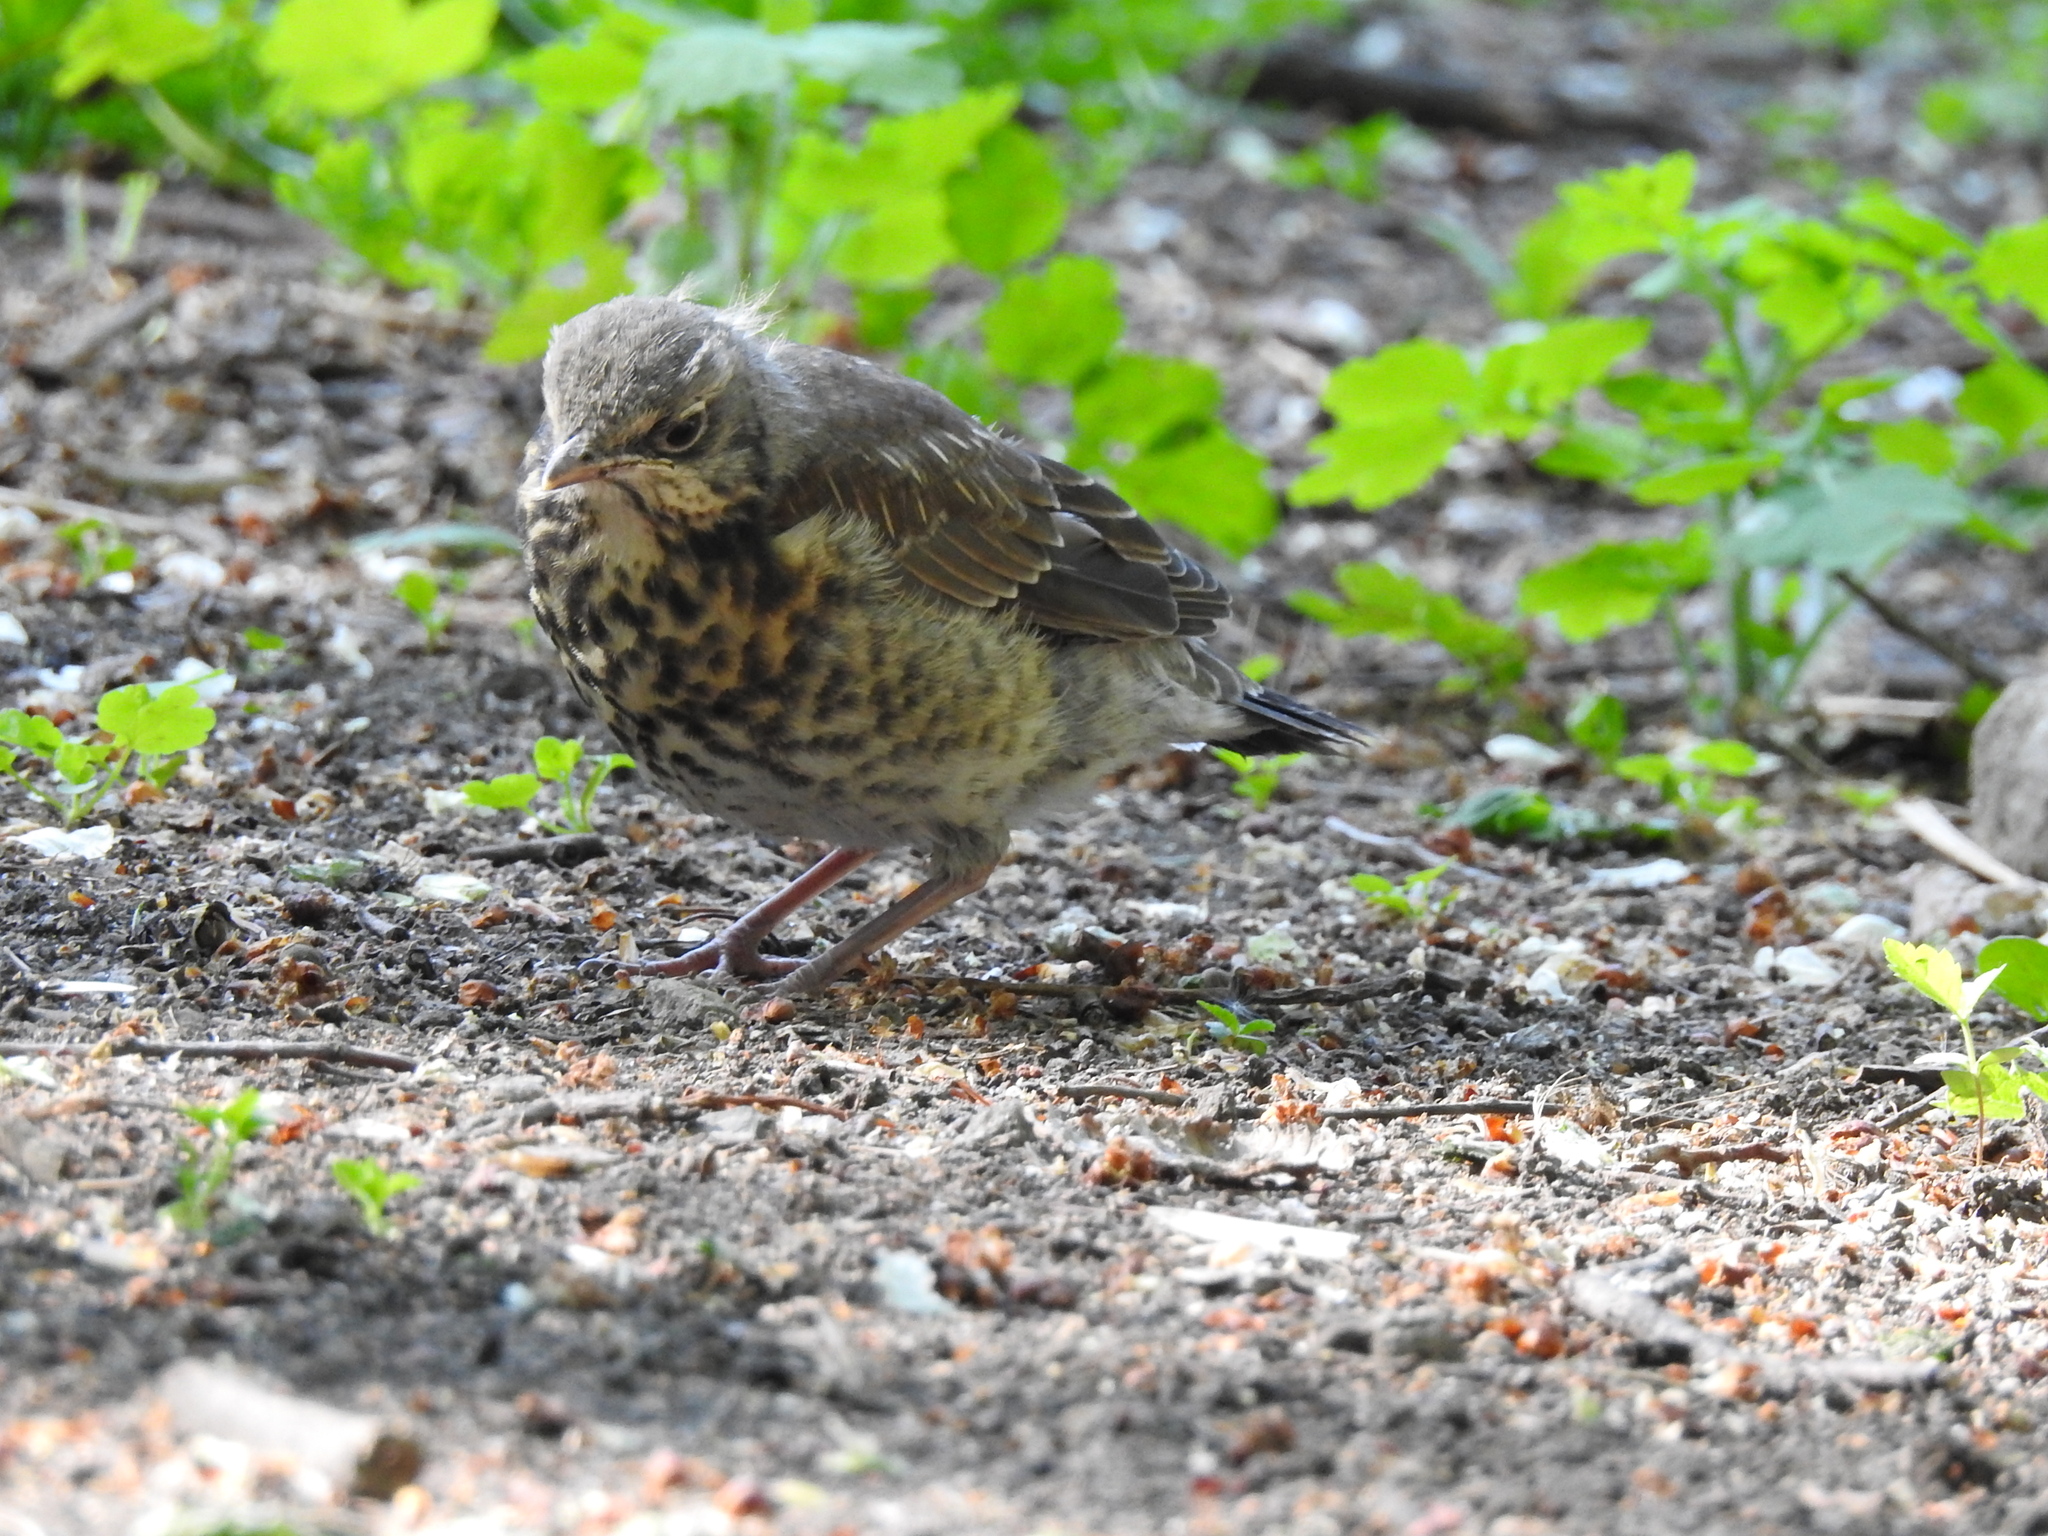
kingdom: Animalia
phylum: Chordata
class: Aves
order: Passeriformes
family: Turdidae
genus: Turdus
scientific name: Turdus pilaris
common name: Fieldfare
